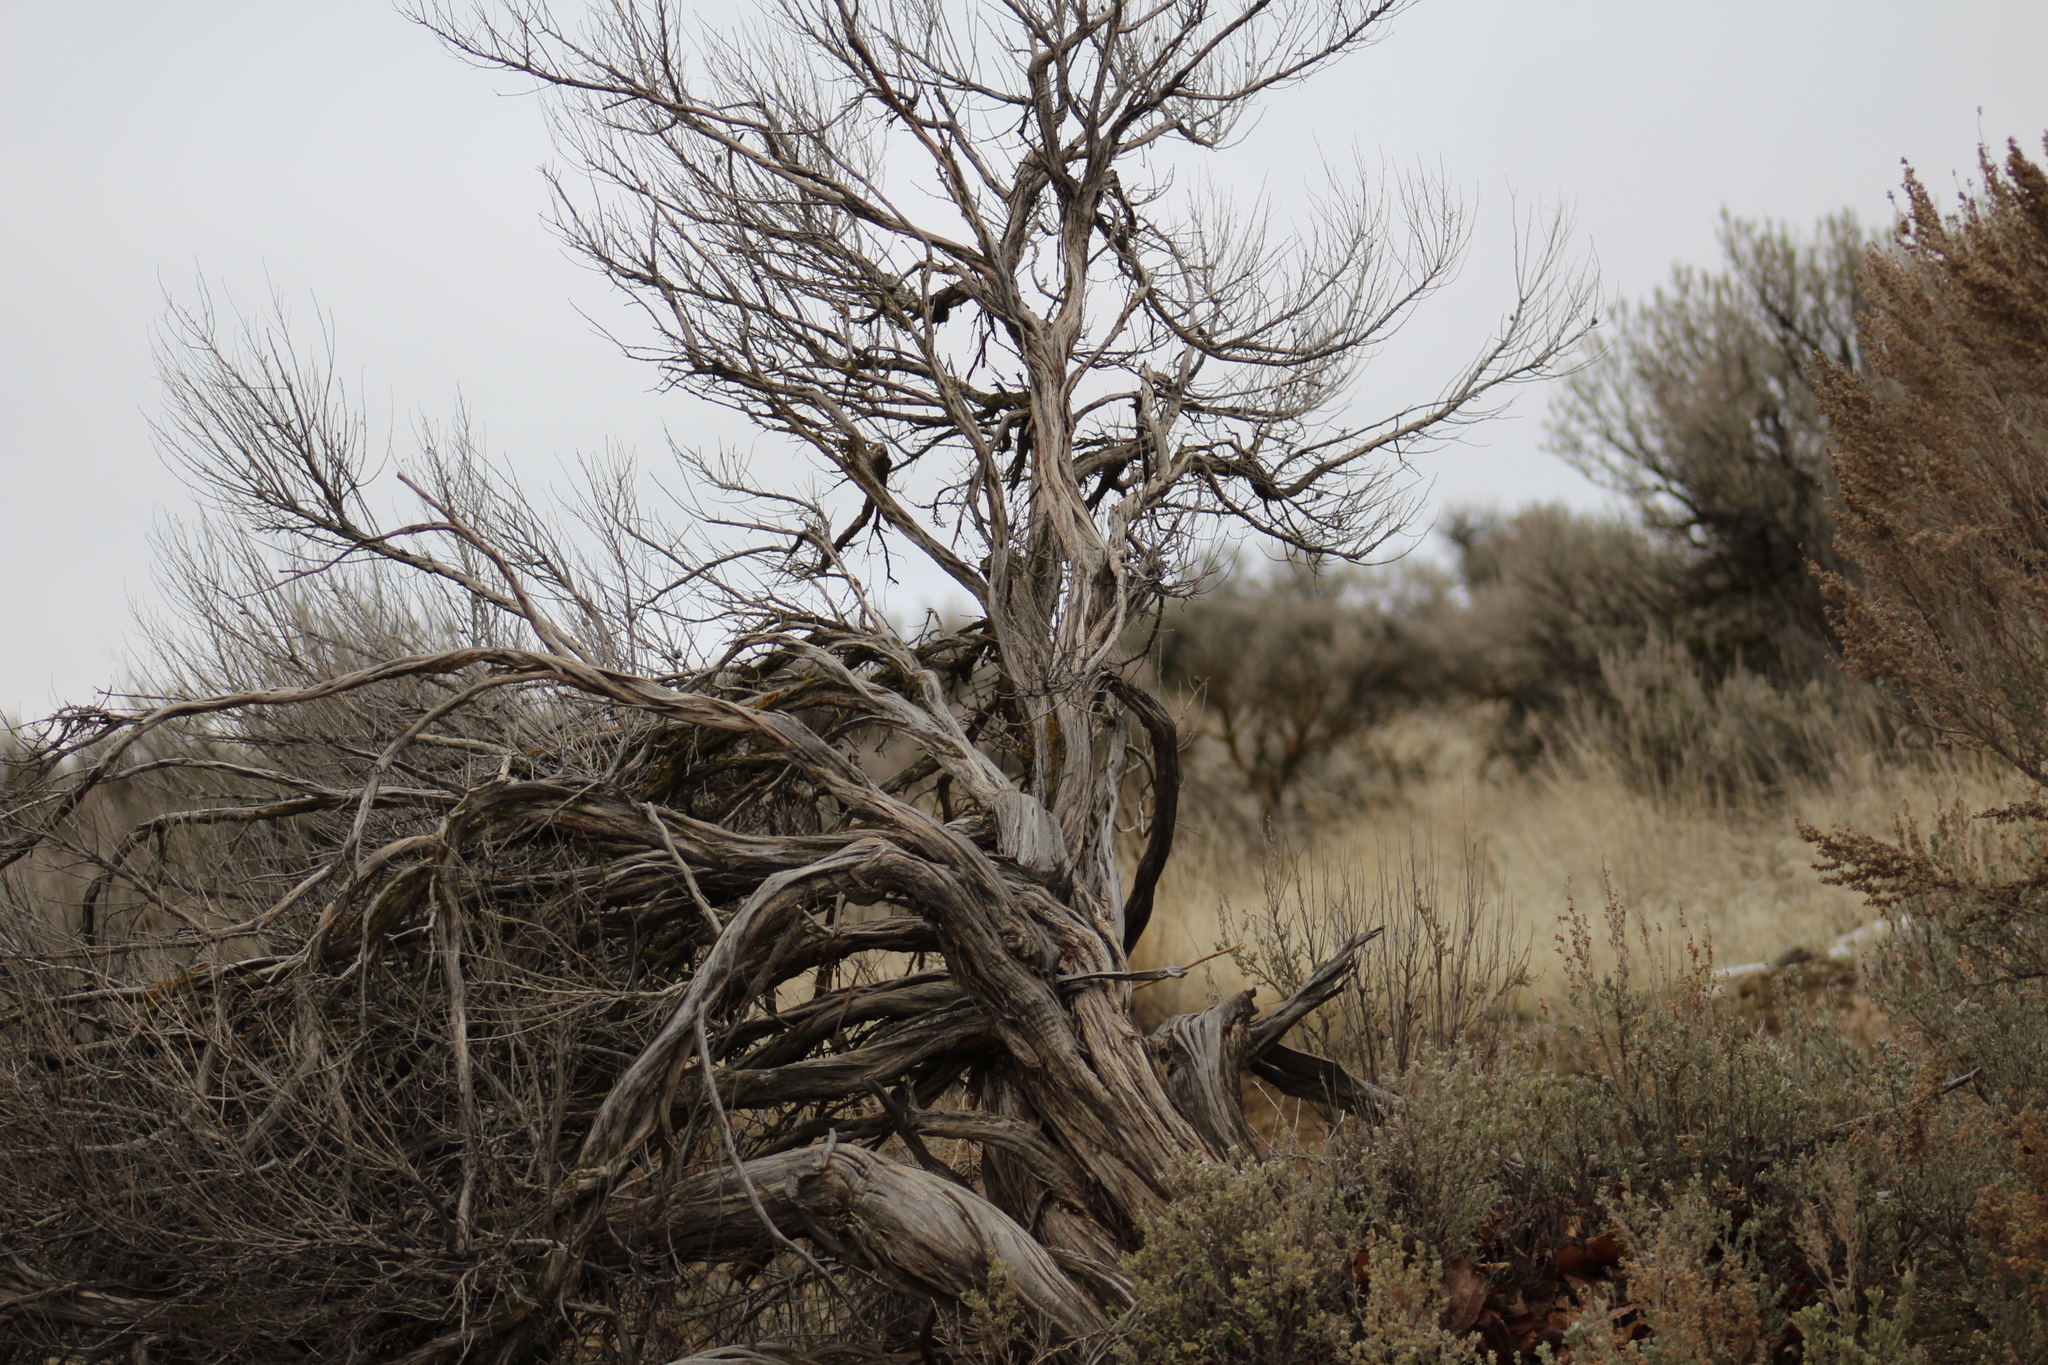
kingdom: Plantae
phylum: Tracheophyta
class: Magnoliopsida
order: Asterales
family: Asteraceae
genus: Artemisia
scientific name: Artemisia tridentata
